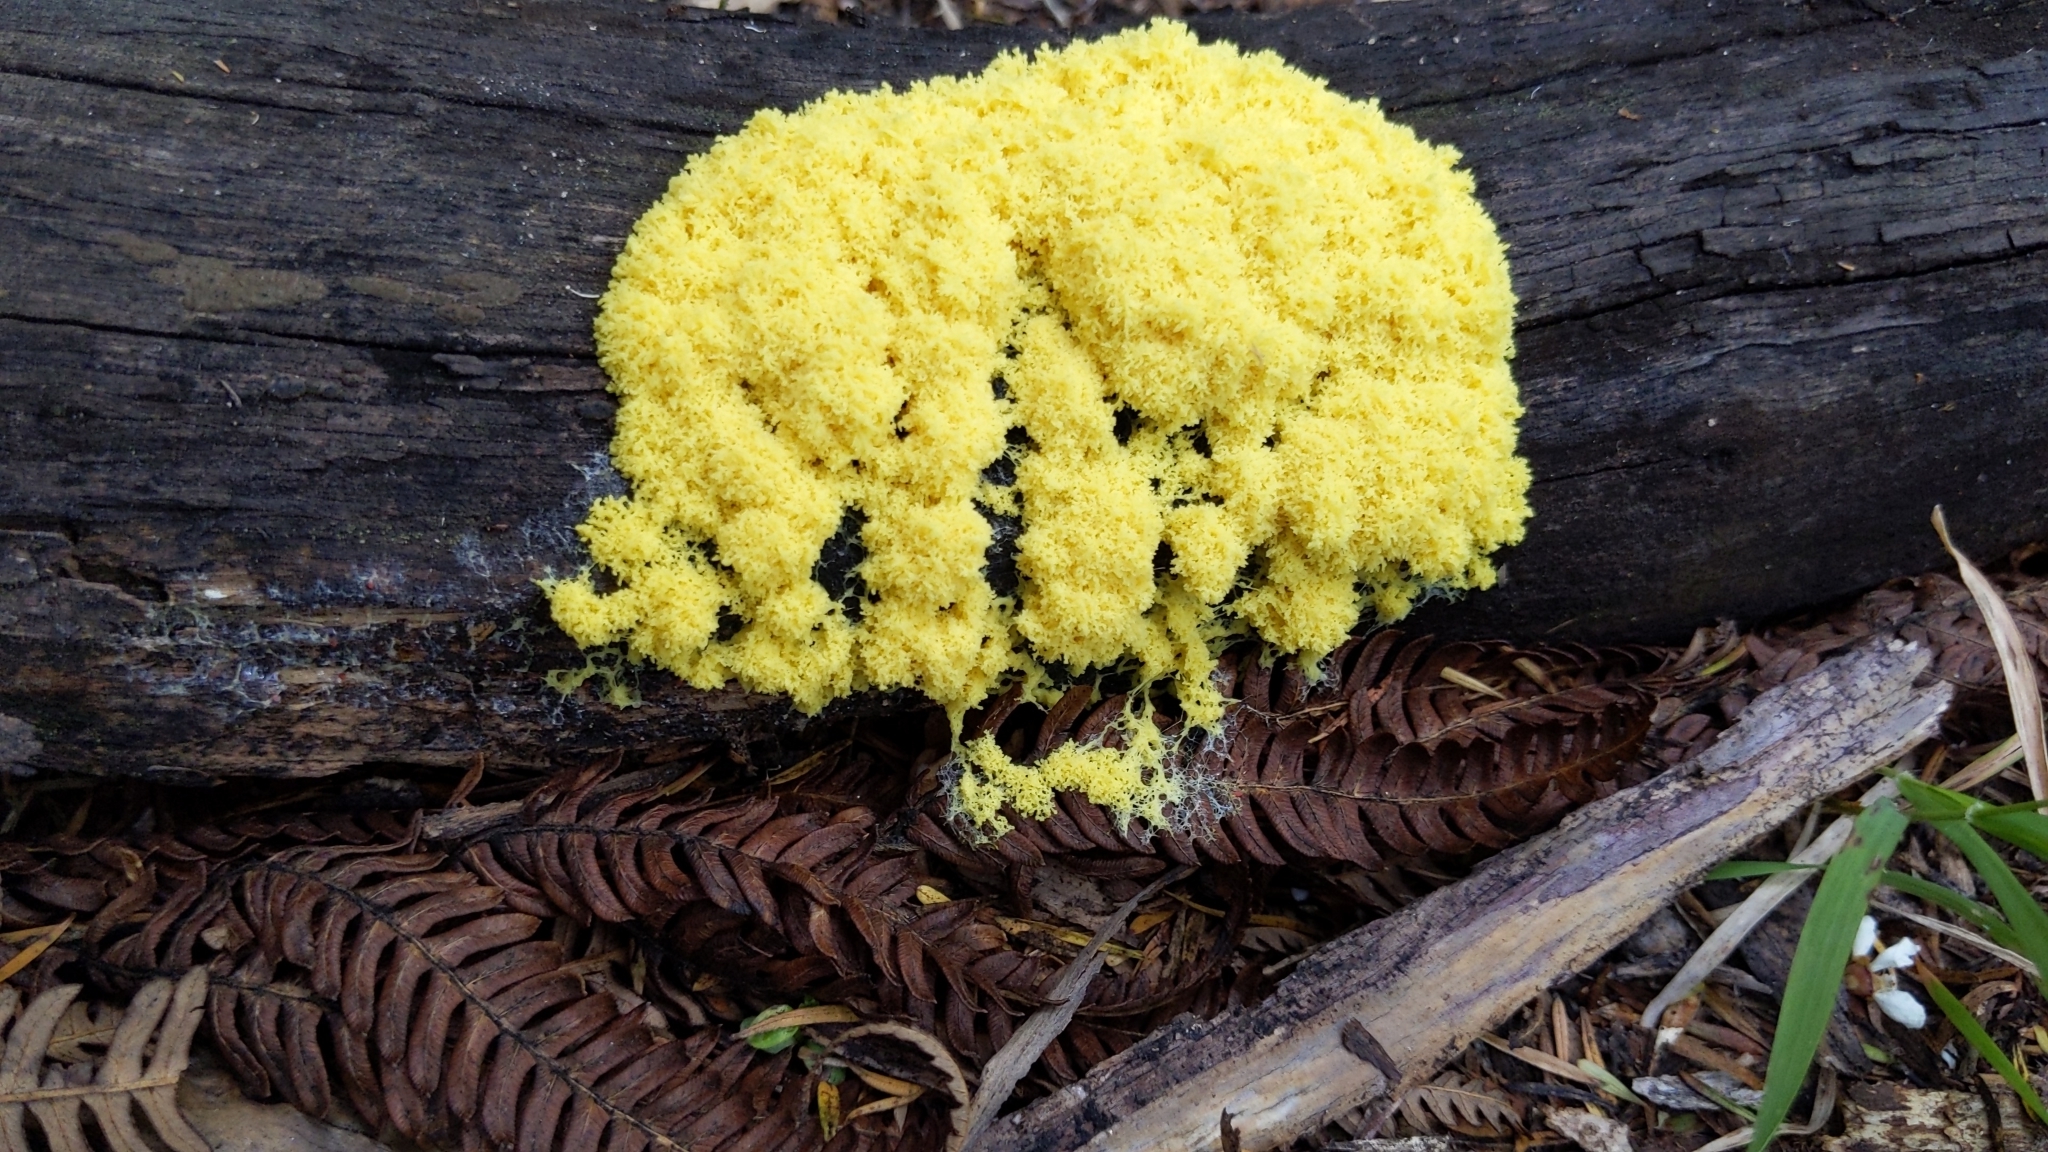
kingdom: Protozoa
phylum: Mycetozoa
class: Myxomycetes
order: Physarales
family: Physaraceae
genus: Fuligo
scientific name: Fuligo septica
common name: Dog vomit slime mold
